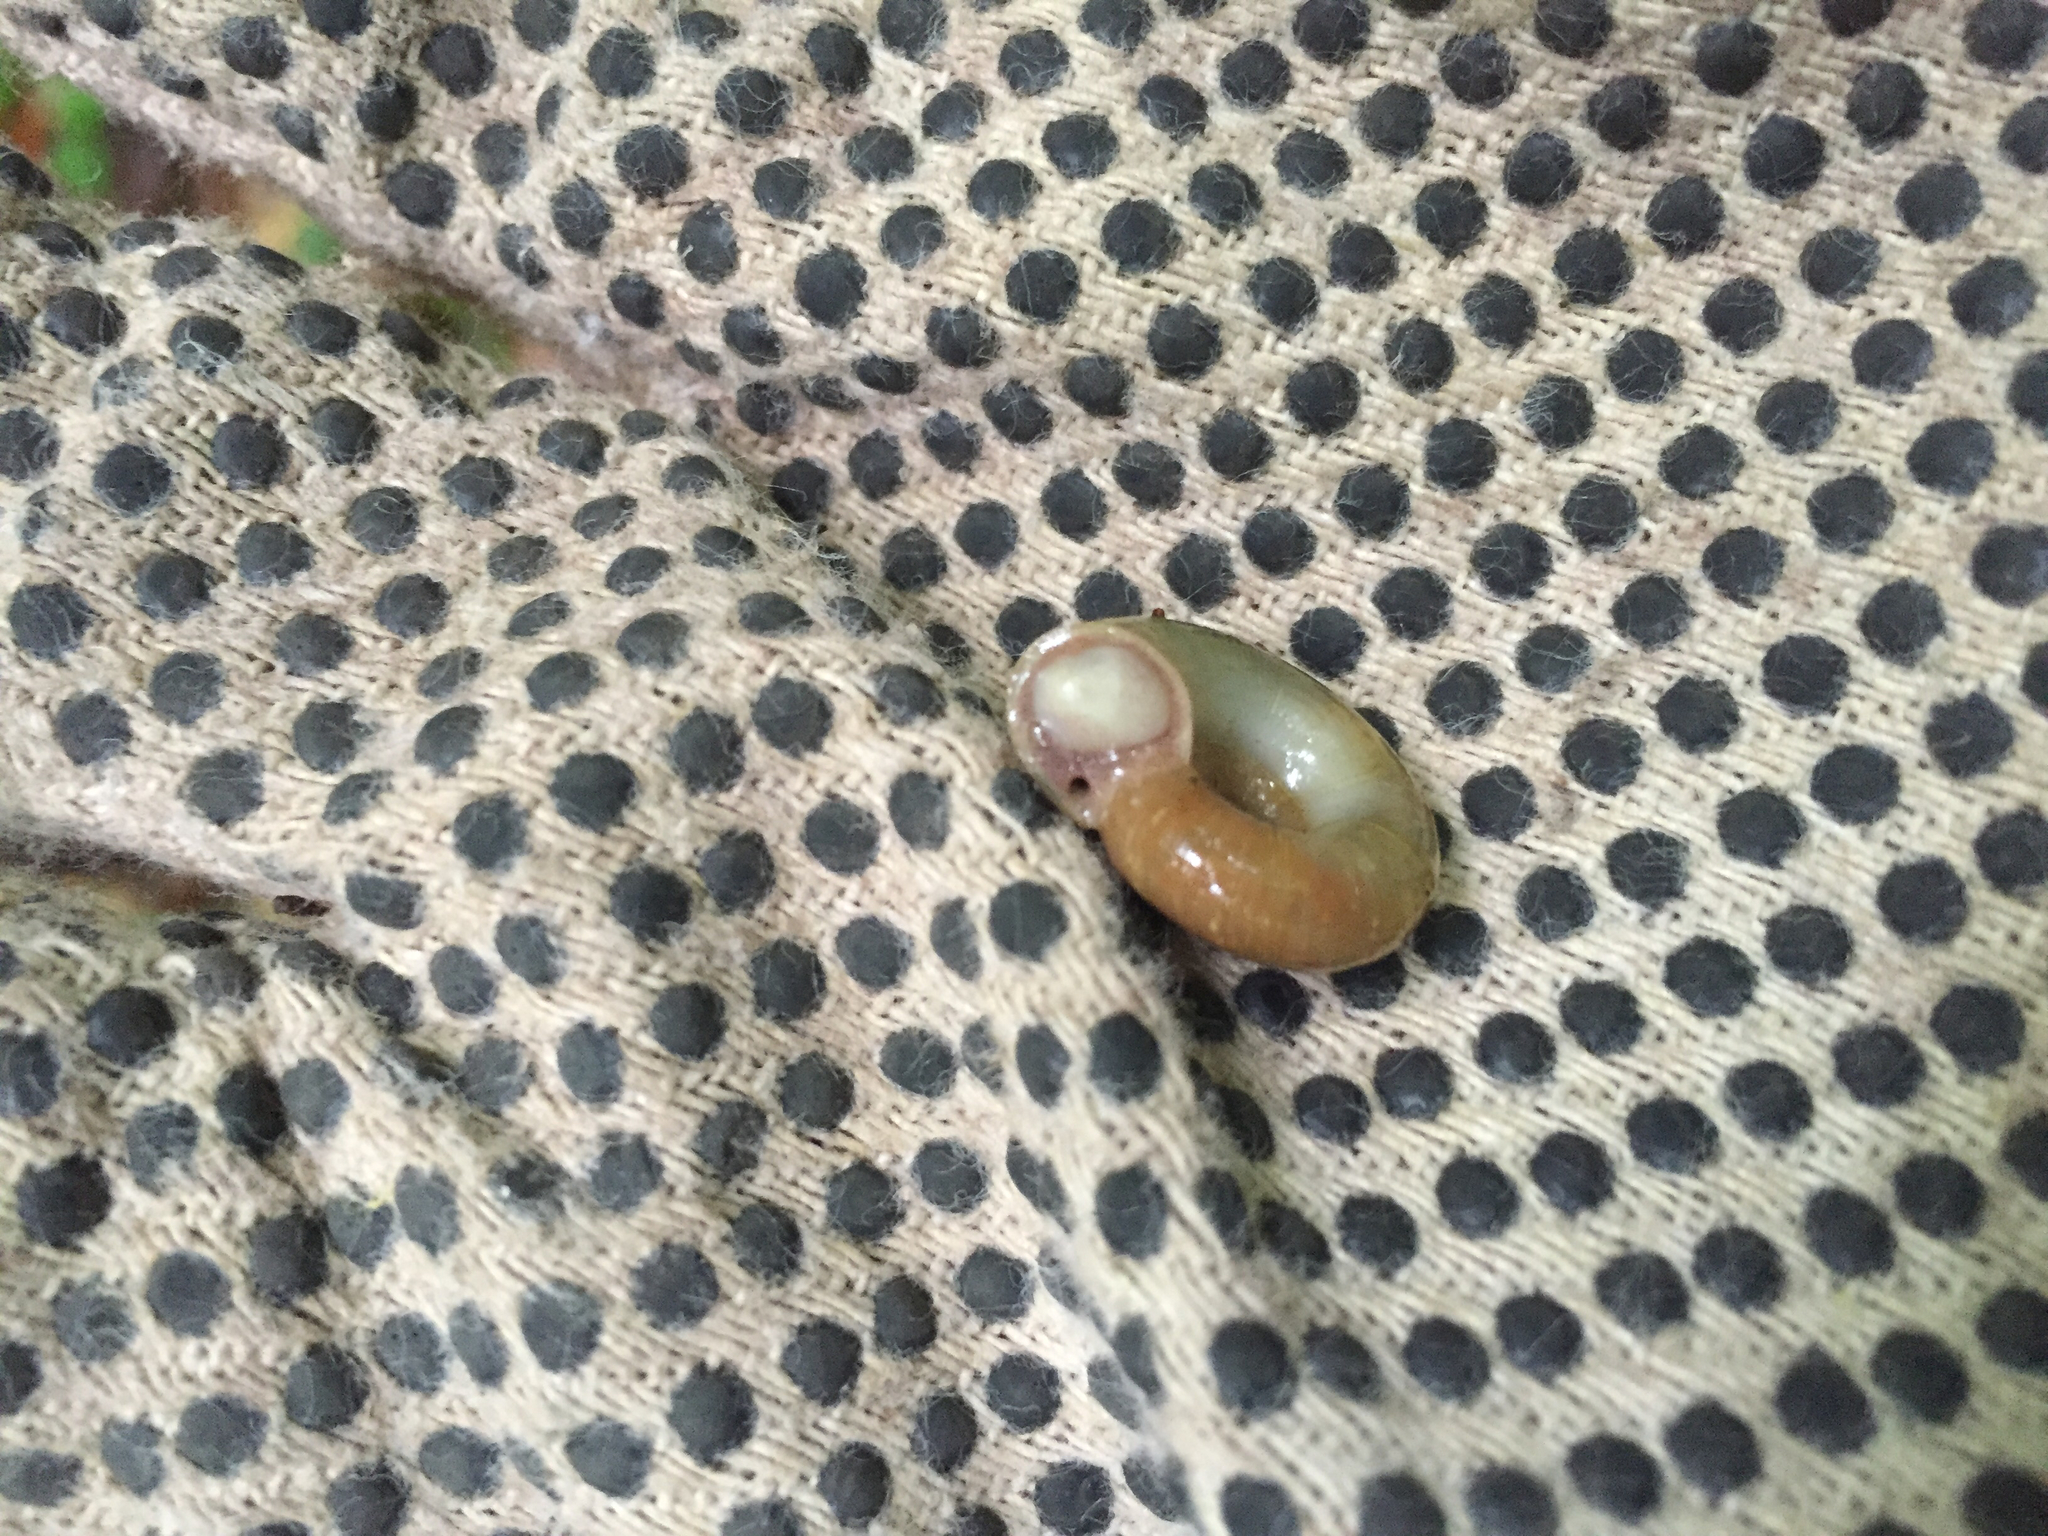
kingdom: Animalia
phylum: Mollusca
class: Gastropoda
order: Stylommatophora
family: Haplotrematidae
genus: Haplotrema
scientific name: Haplotrema concavum
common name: Gray-foot lancetooth
